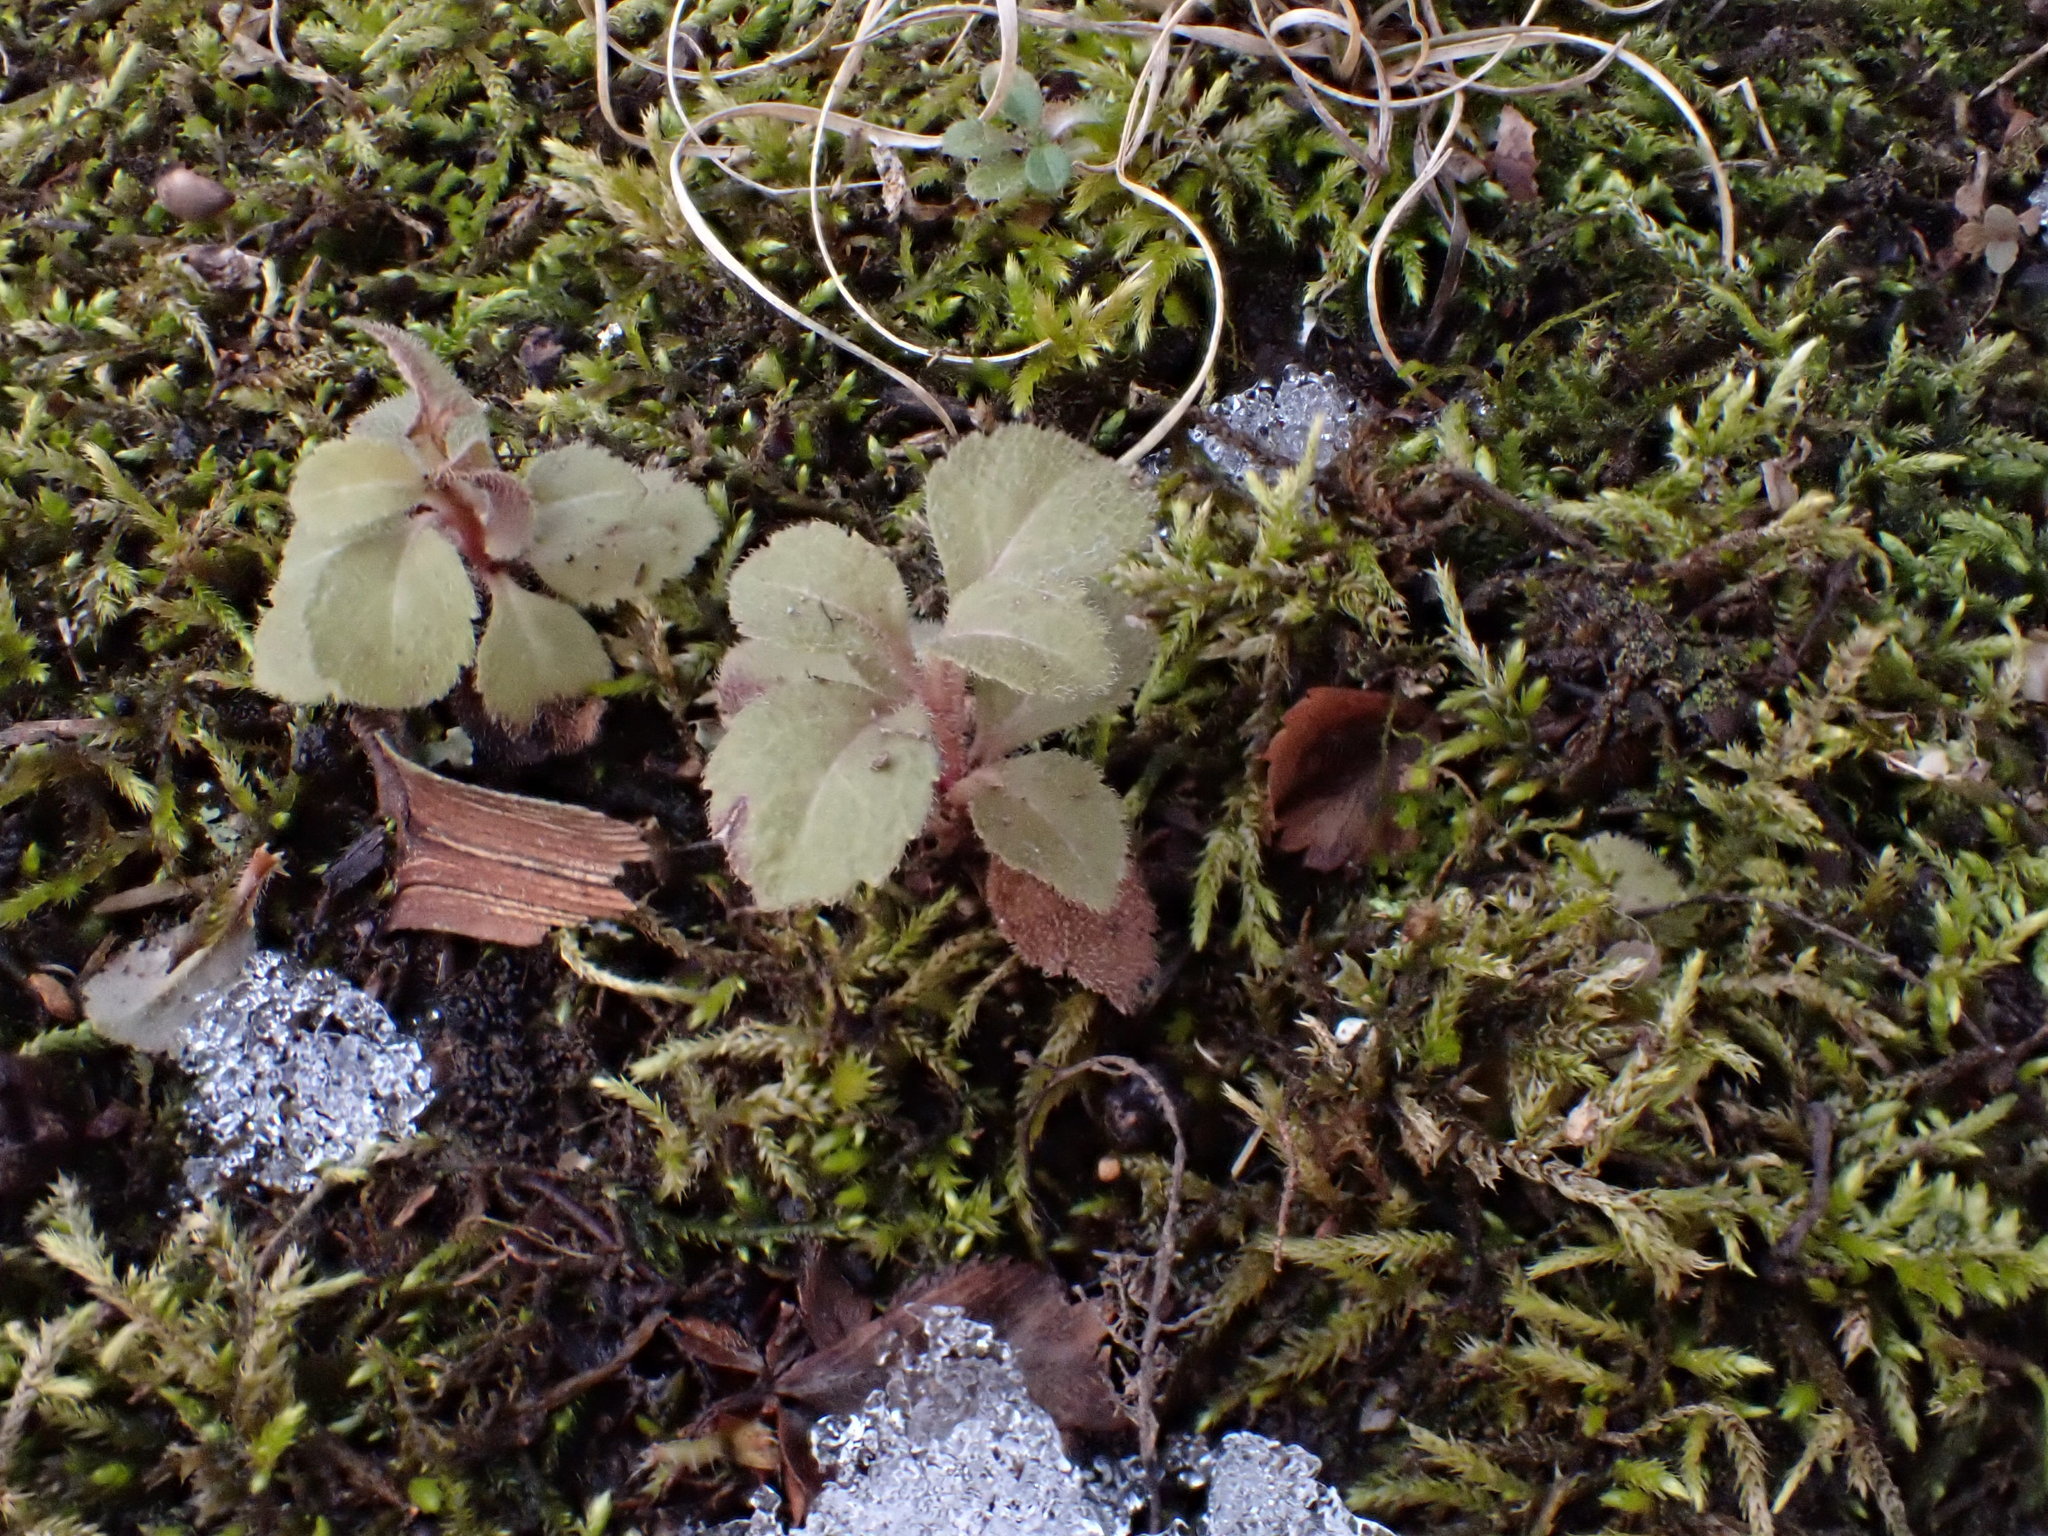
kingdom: Plantae
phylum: Tracheophyta
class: Magnoliopsida
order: Lamiales
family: Plantaginaceae
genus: Veronica
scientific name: Veronica officinalis
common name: Common speedwell
